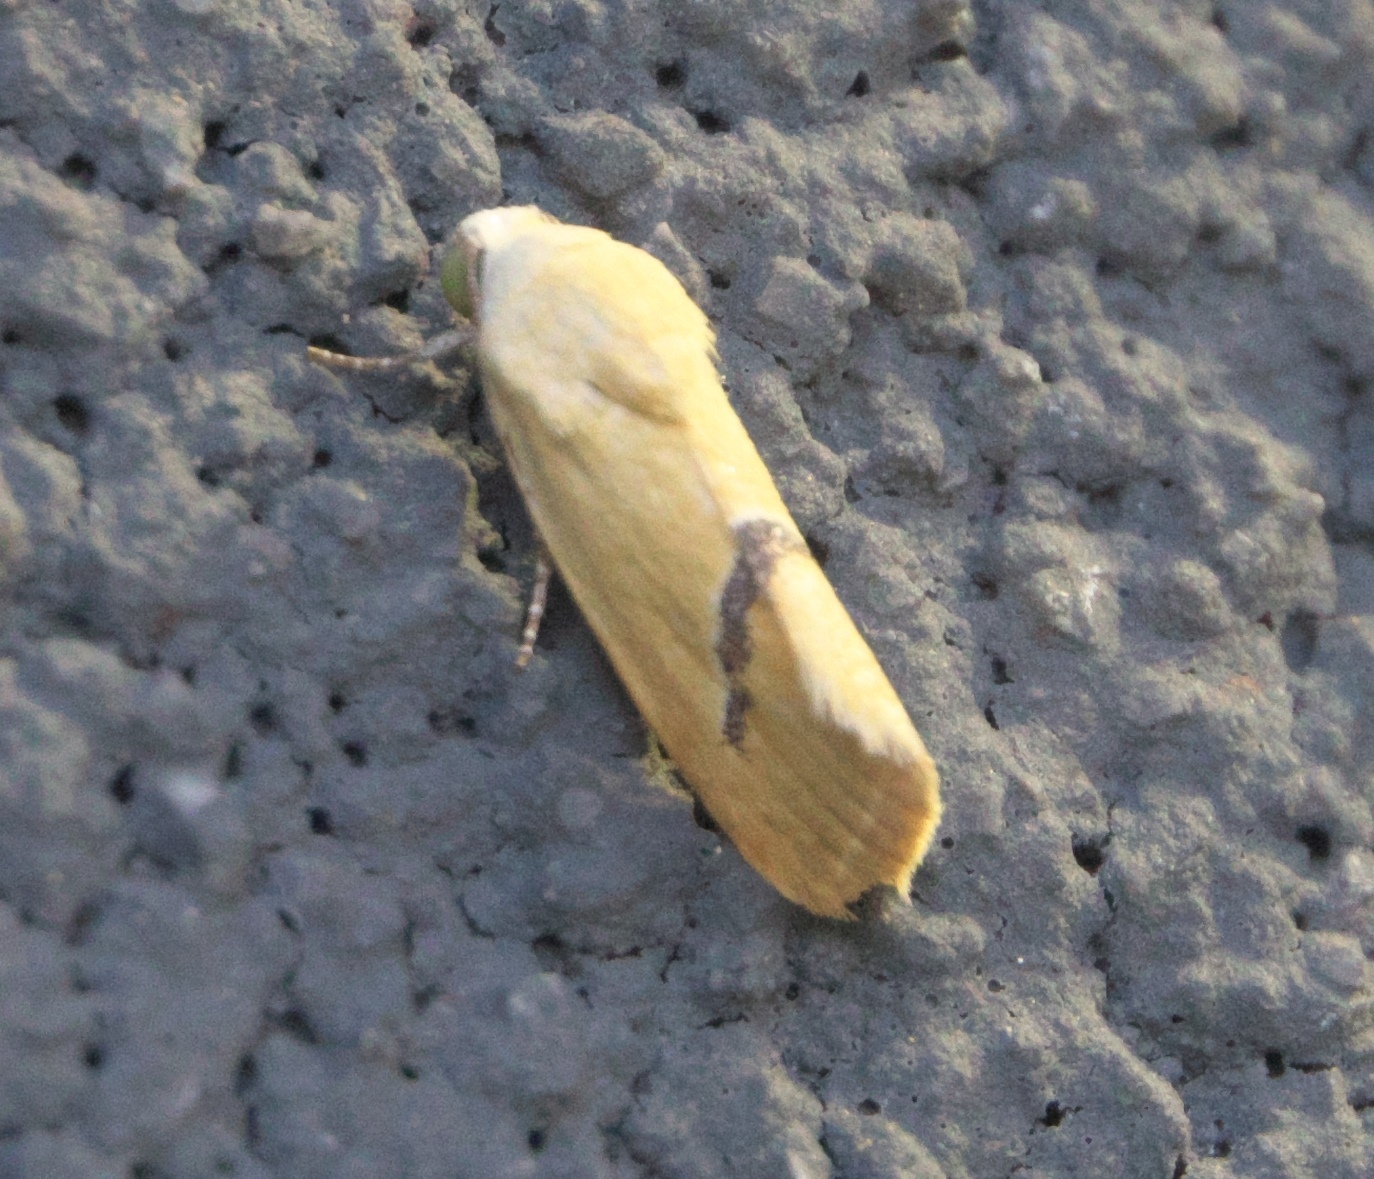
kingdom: Animalia
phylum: Arthropoda
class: Insecta
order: Lepidoptera
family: Noctuidae
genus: Ponometia
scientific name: Ponometia venustula
